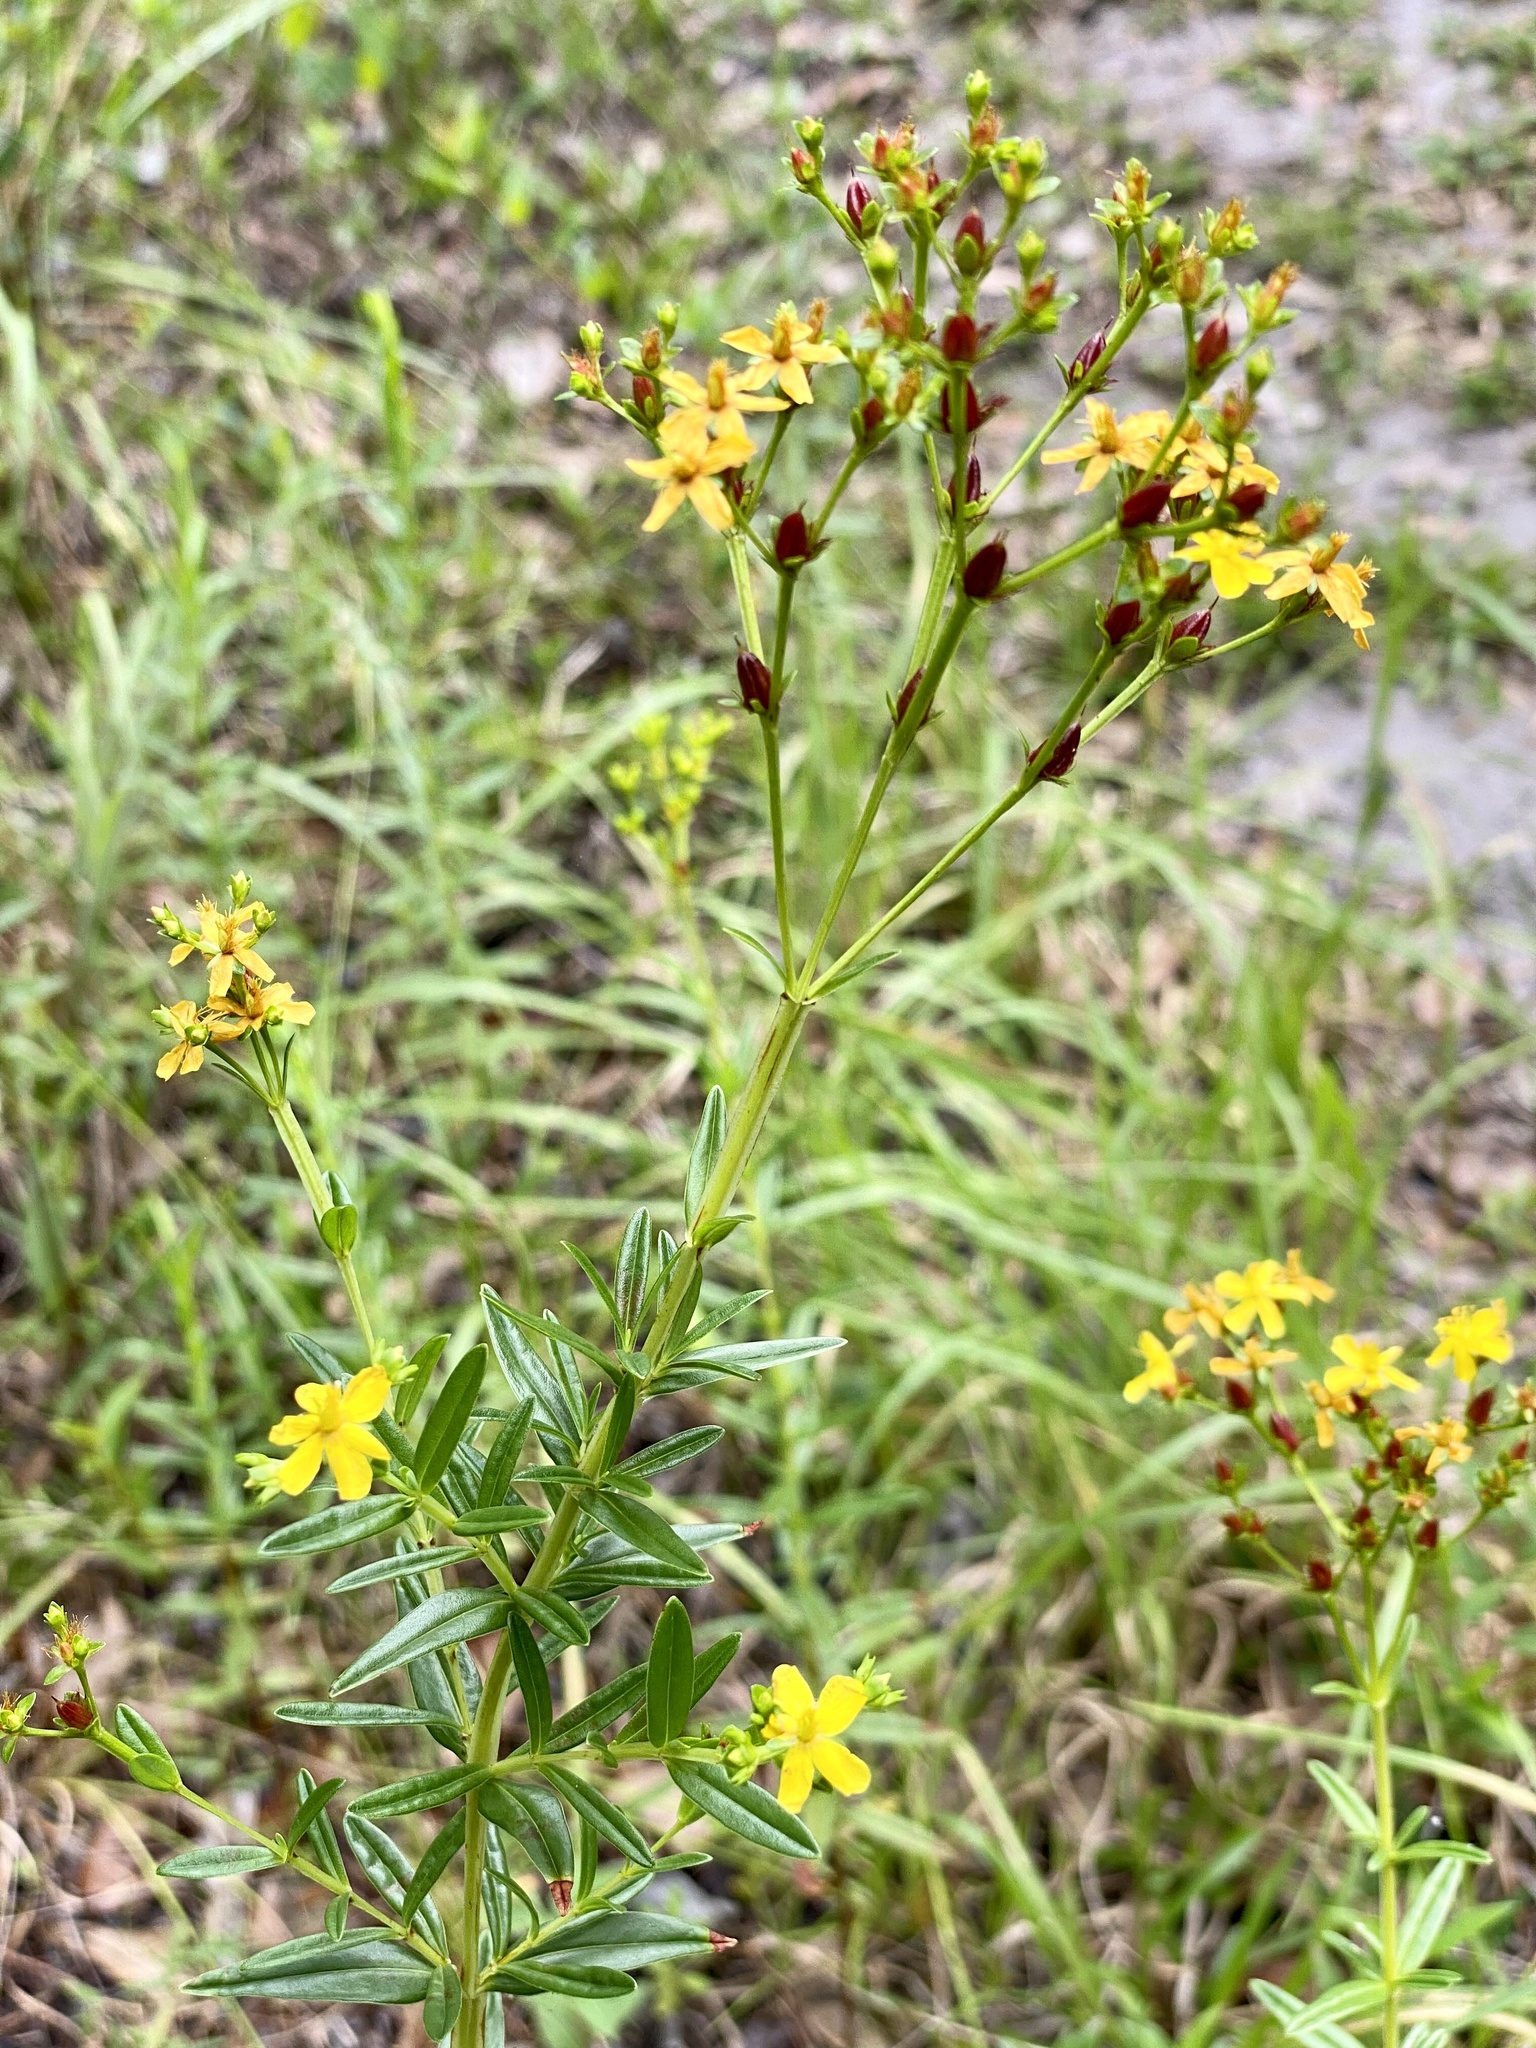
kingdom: Plantae
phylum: Tracheophyta
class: Magnoliopsida
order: Malpighiales
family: Hypericaceae
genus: Hypericum
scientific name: Hypericum cistifolium
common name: Round-pod st. john's-wort
